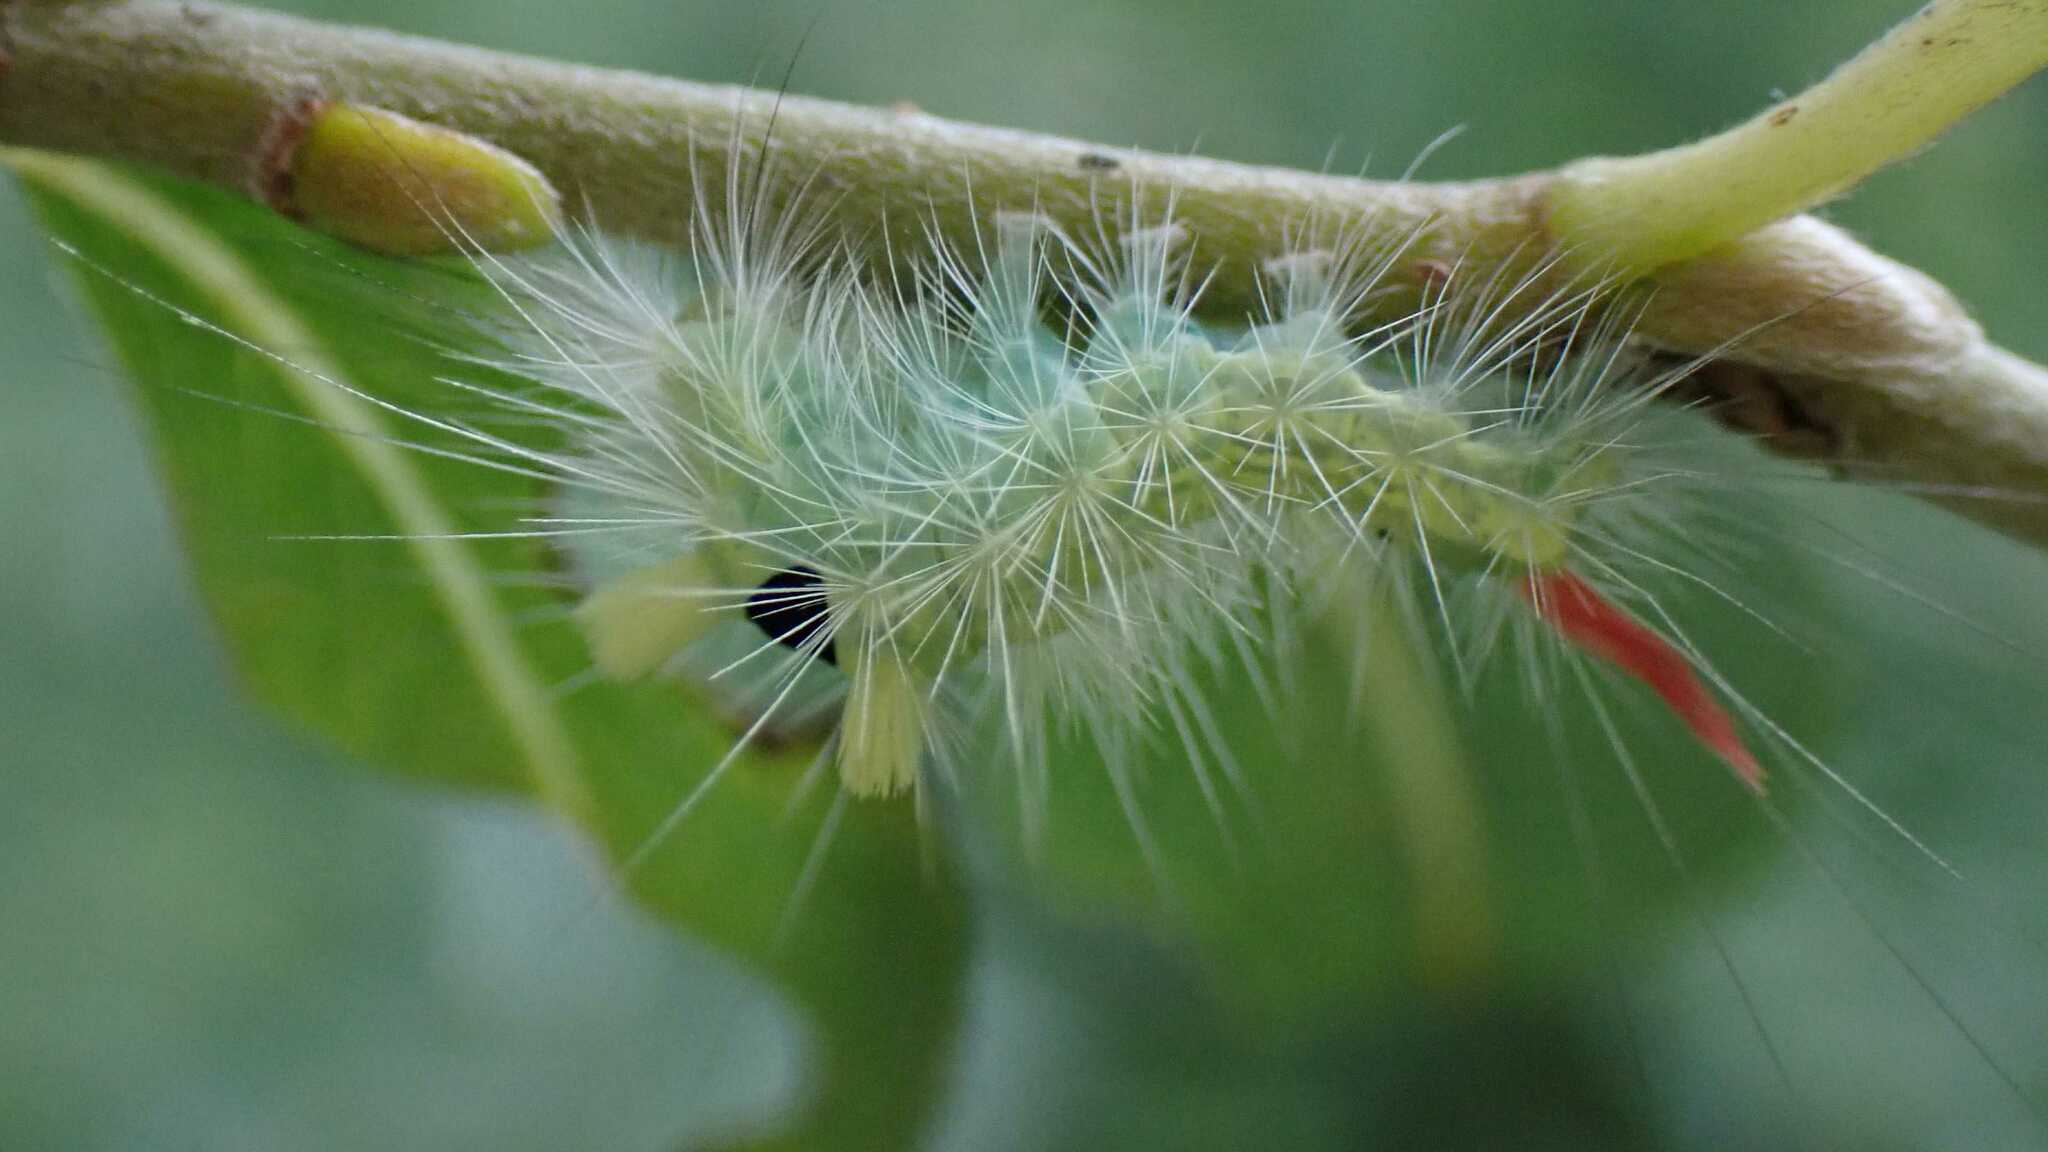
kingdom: Animalia
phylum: Arthropoda
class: Insecta
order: Lepidoptera
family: Erebidae
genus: Calliteara
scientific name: Calliteara pudibunda
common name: Pale tussock
